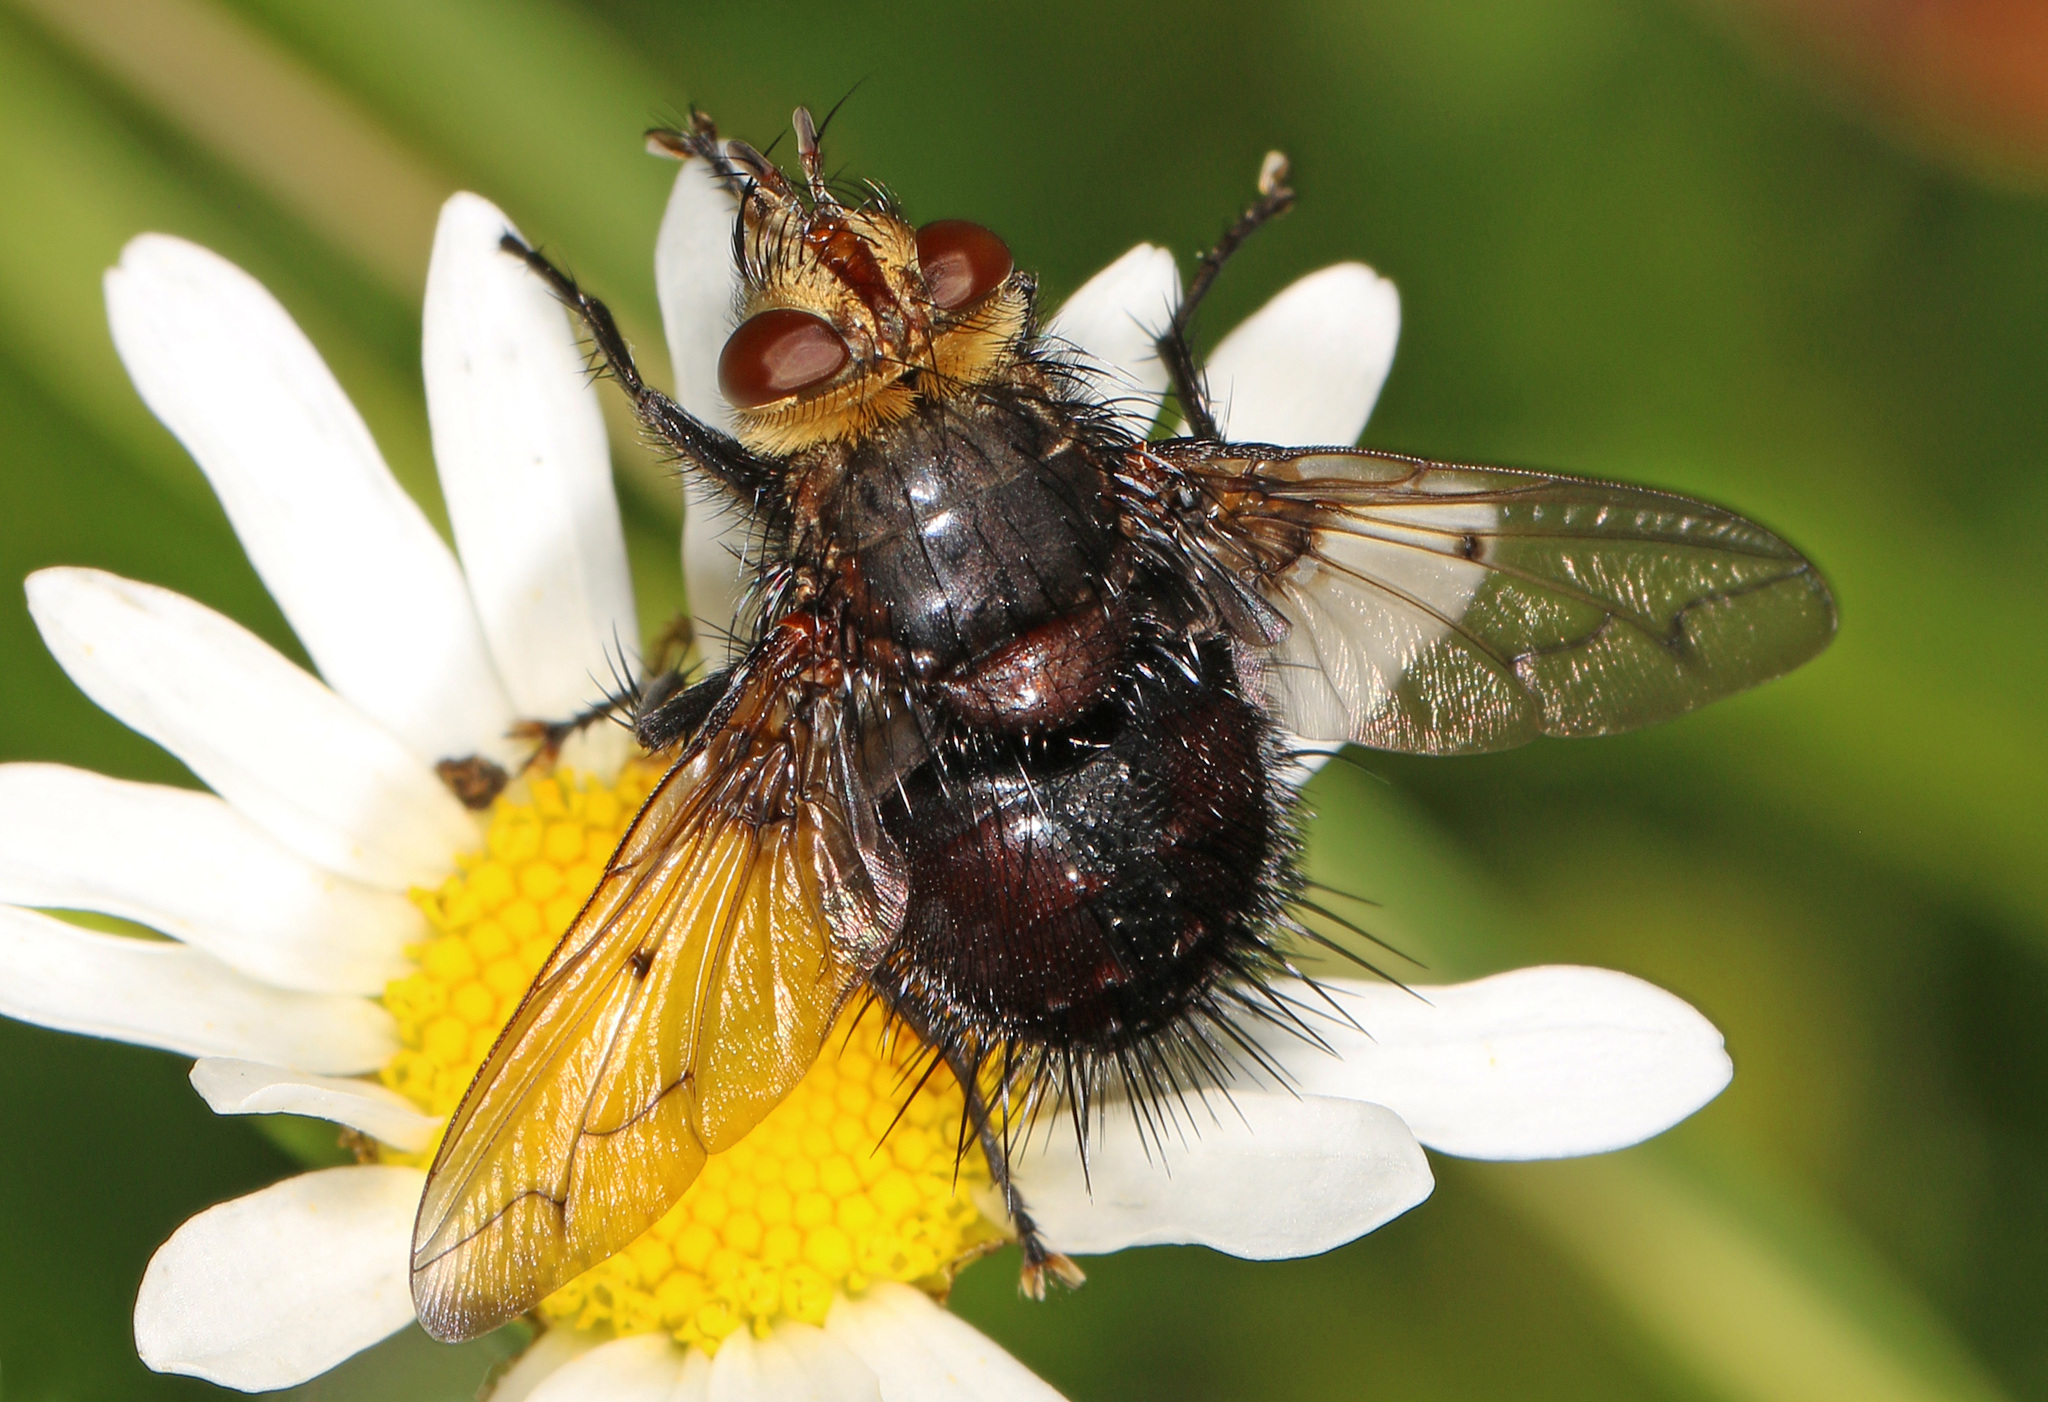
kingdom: Animalia
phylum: Arthropoda
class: Insecta
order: Diptera
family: Tachinidae
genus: Pararchytas
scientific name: Pararchytas decisus
